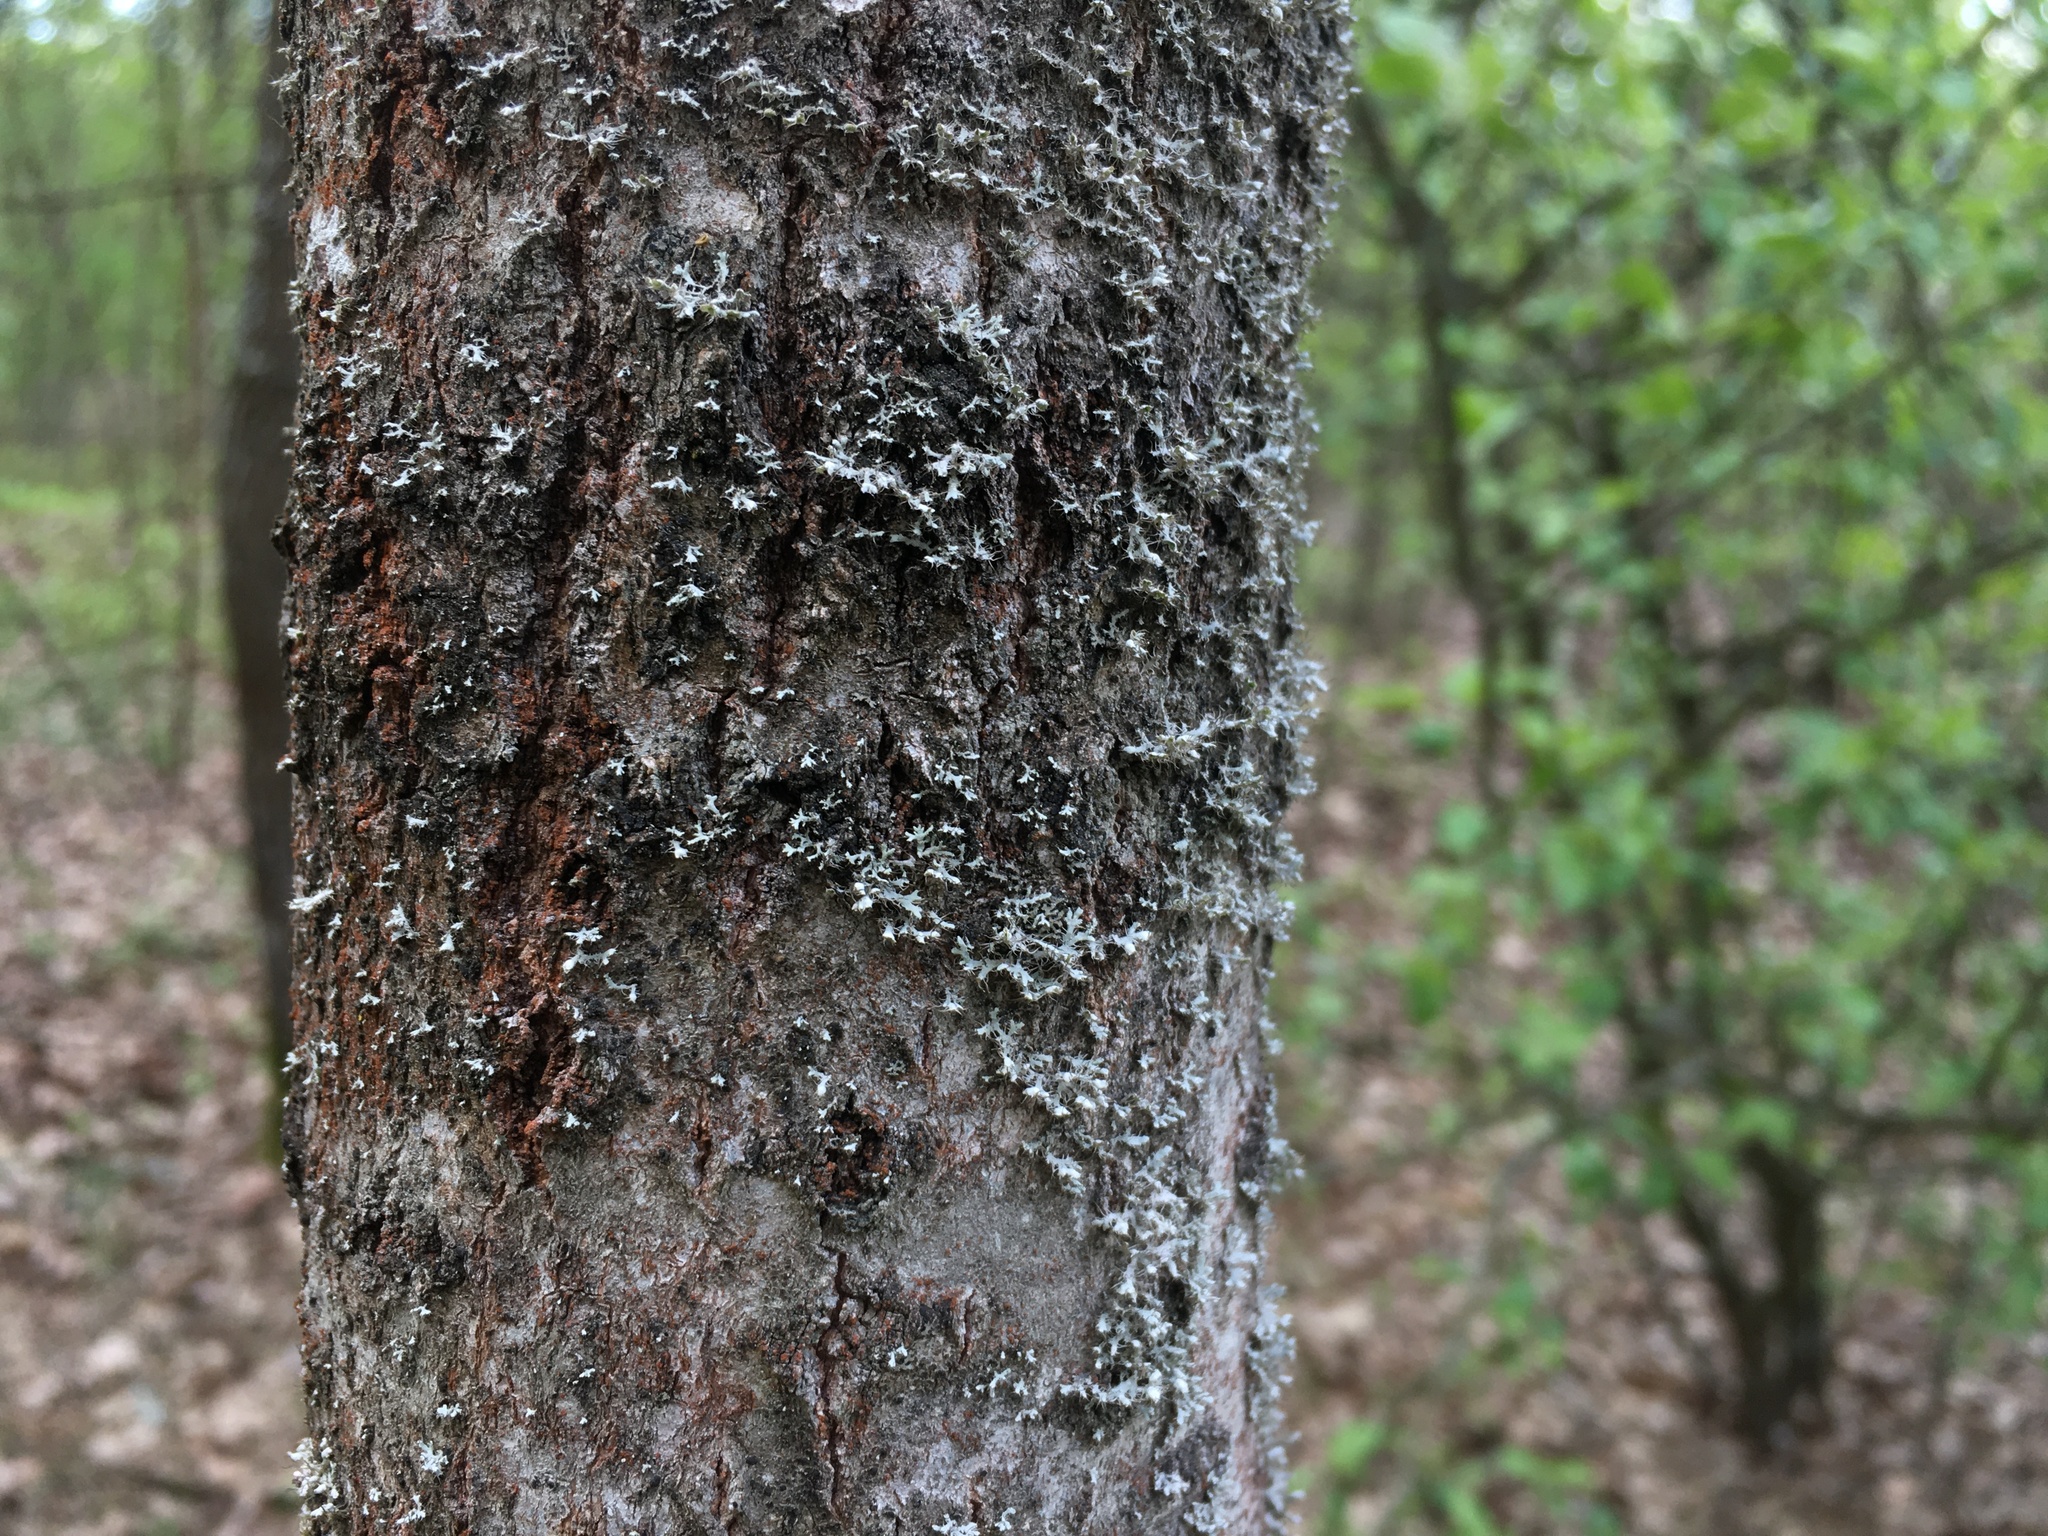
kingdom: Fungi
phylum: Ascomycota
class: Lecanoromycetes
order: Caliciales
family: Physciaceae
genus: Physcia
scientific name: Physcia adscendens
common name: Hooded rosette lichen
